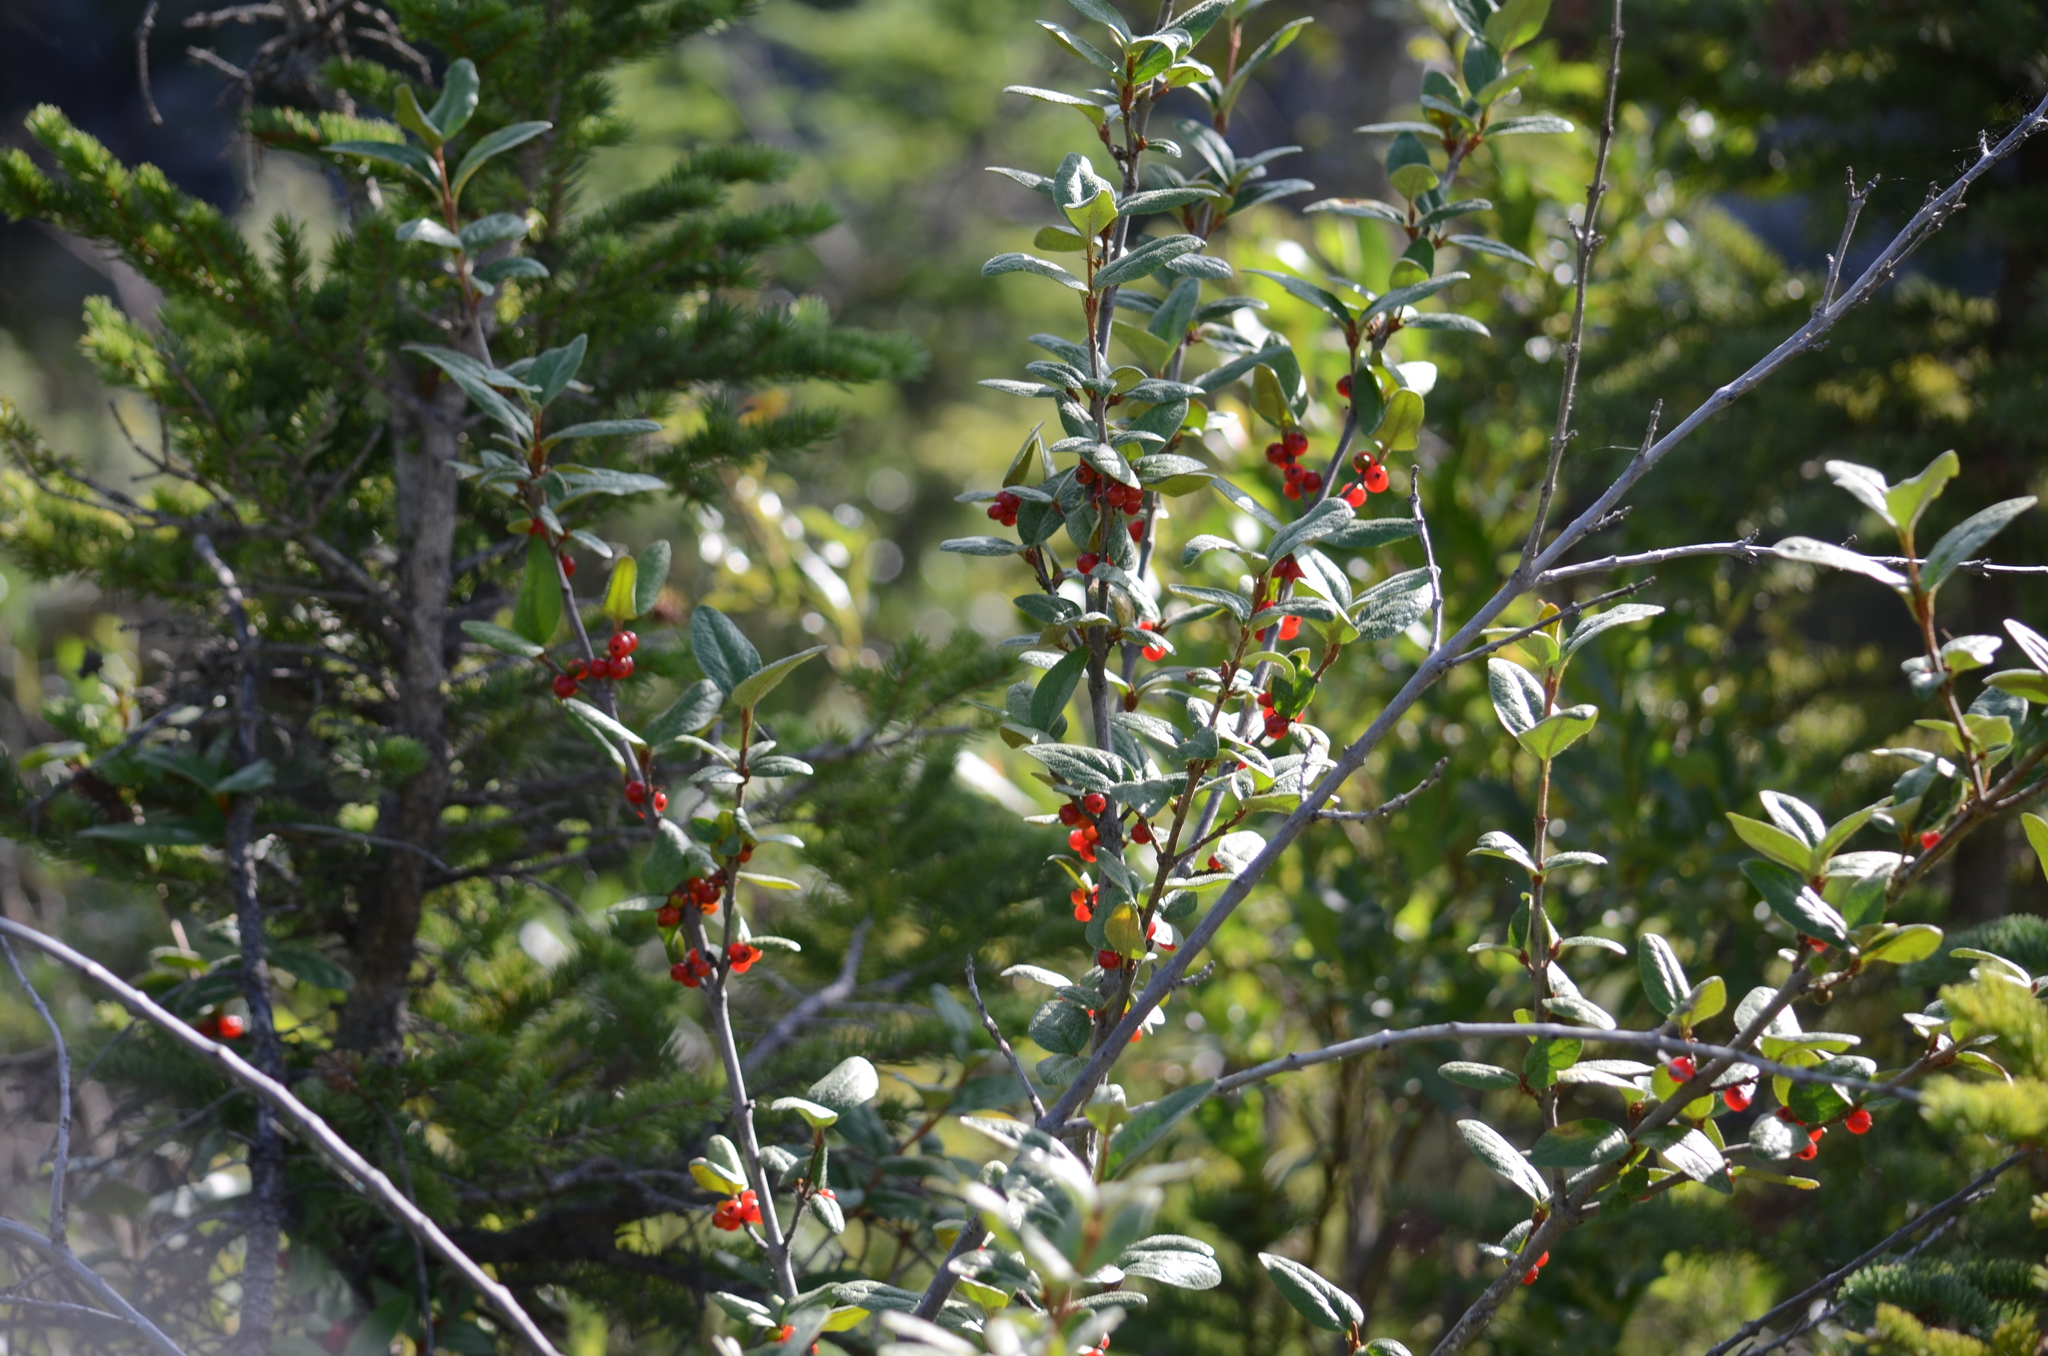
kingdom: Plantae
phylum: Tracheophyta
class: Magnoliopsida
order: Rosales
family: Elaeagnaceae
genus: Shepherdia
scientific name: Shepherdia canadensis
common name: Soapberry
